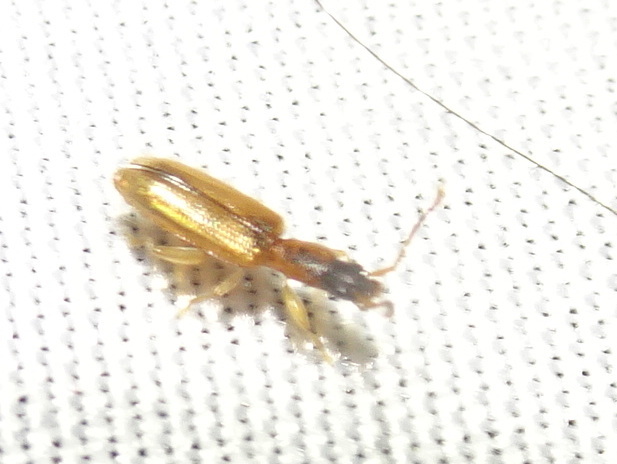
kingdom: Animalia
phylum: Arthropoda
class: Insecta
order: Coleoptera
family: Silvanidae
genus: Telephanus
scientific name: Telephanus velox
